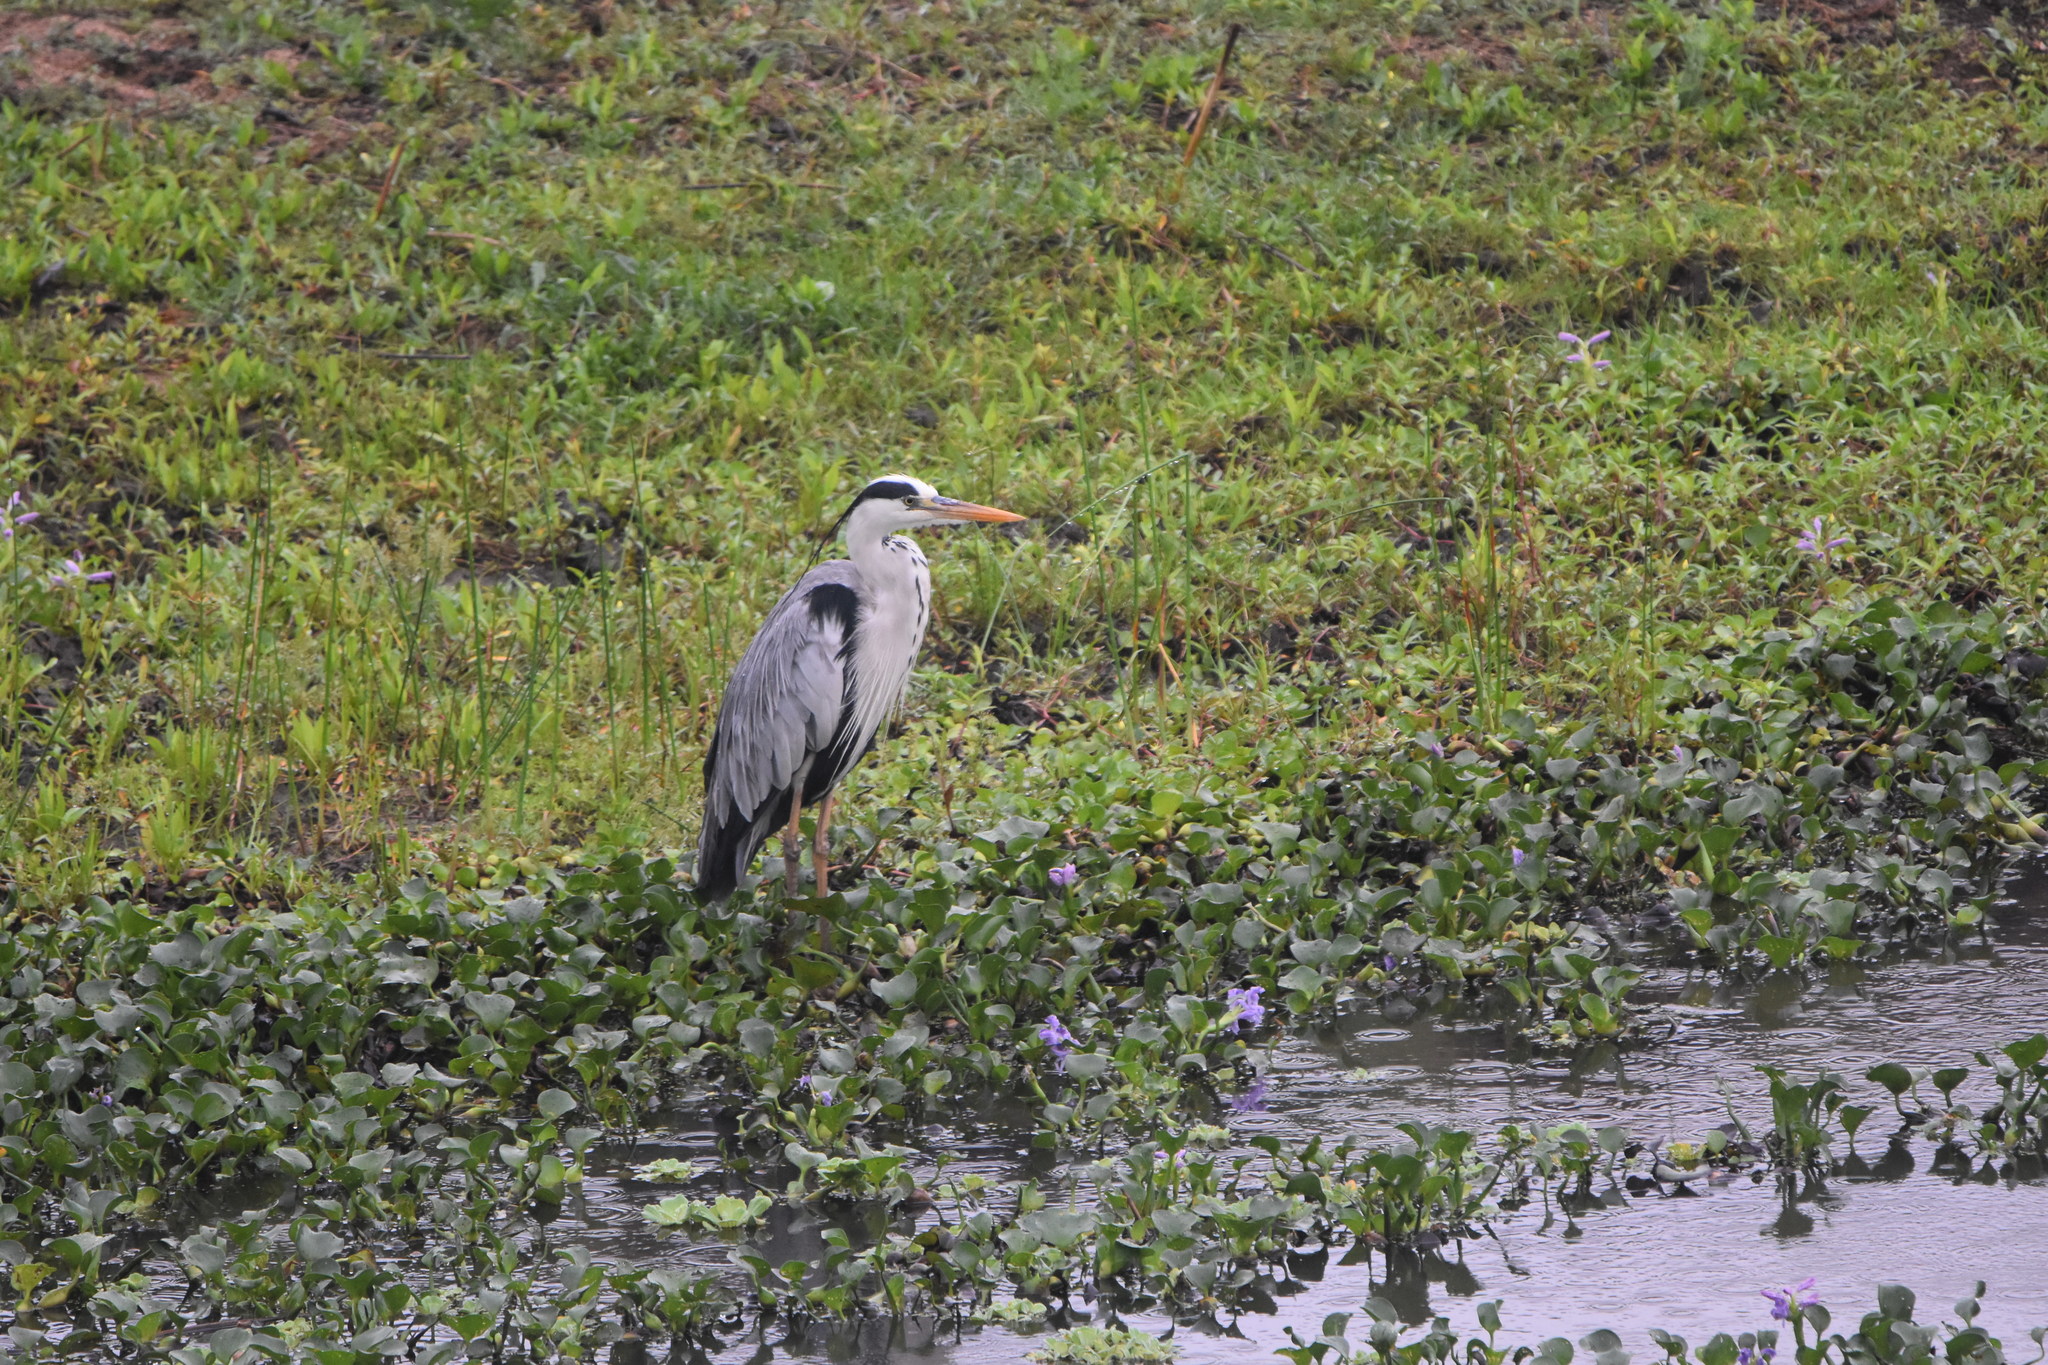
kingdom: Animalia
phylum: Chordata
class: Aves
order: Pelecaniformes
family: Ardeidae
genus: Ardea
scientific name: Ardea cinerea
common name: Grey heron
